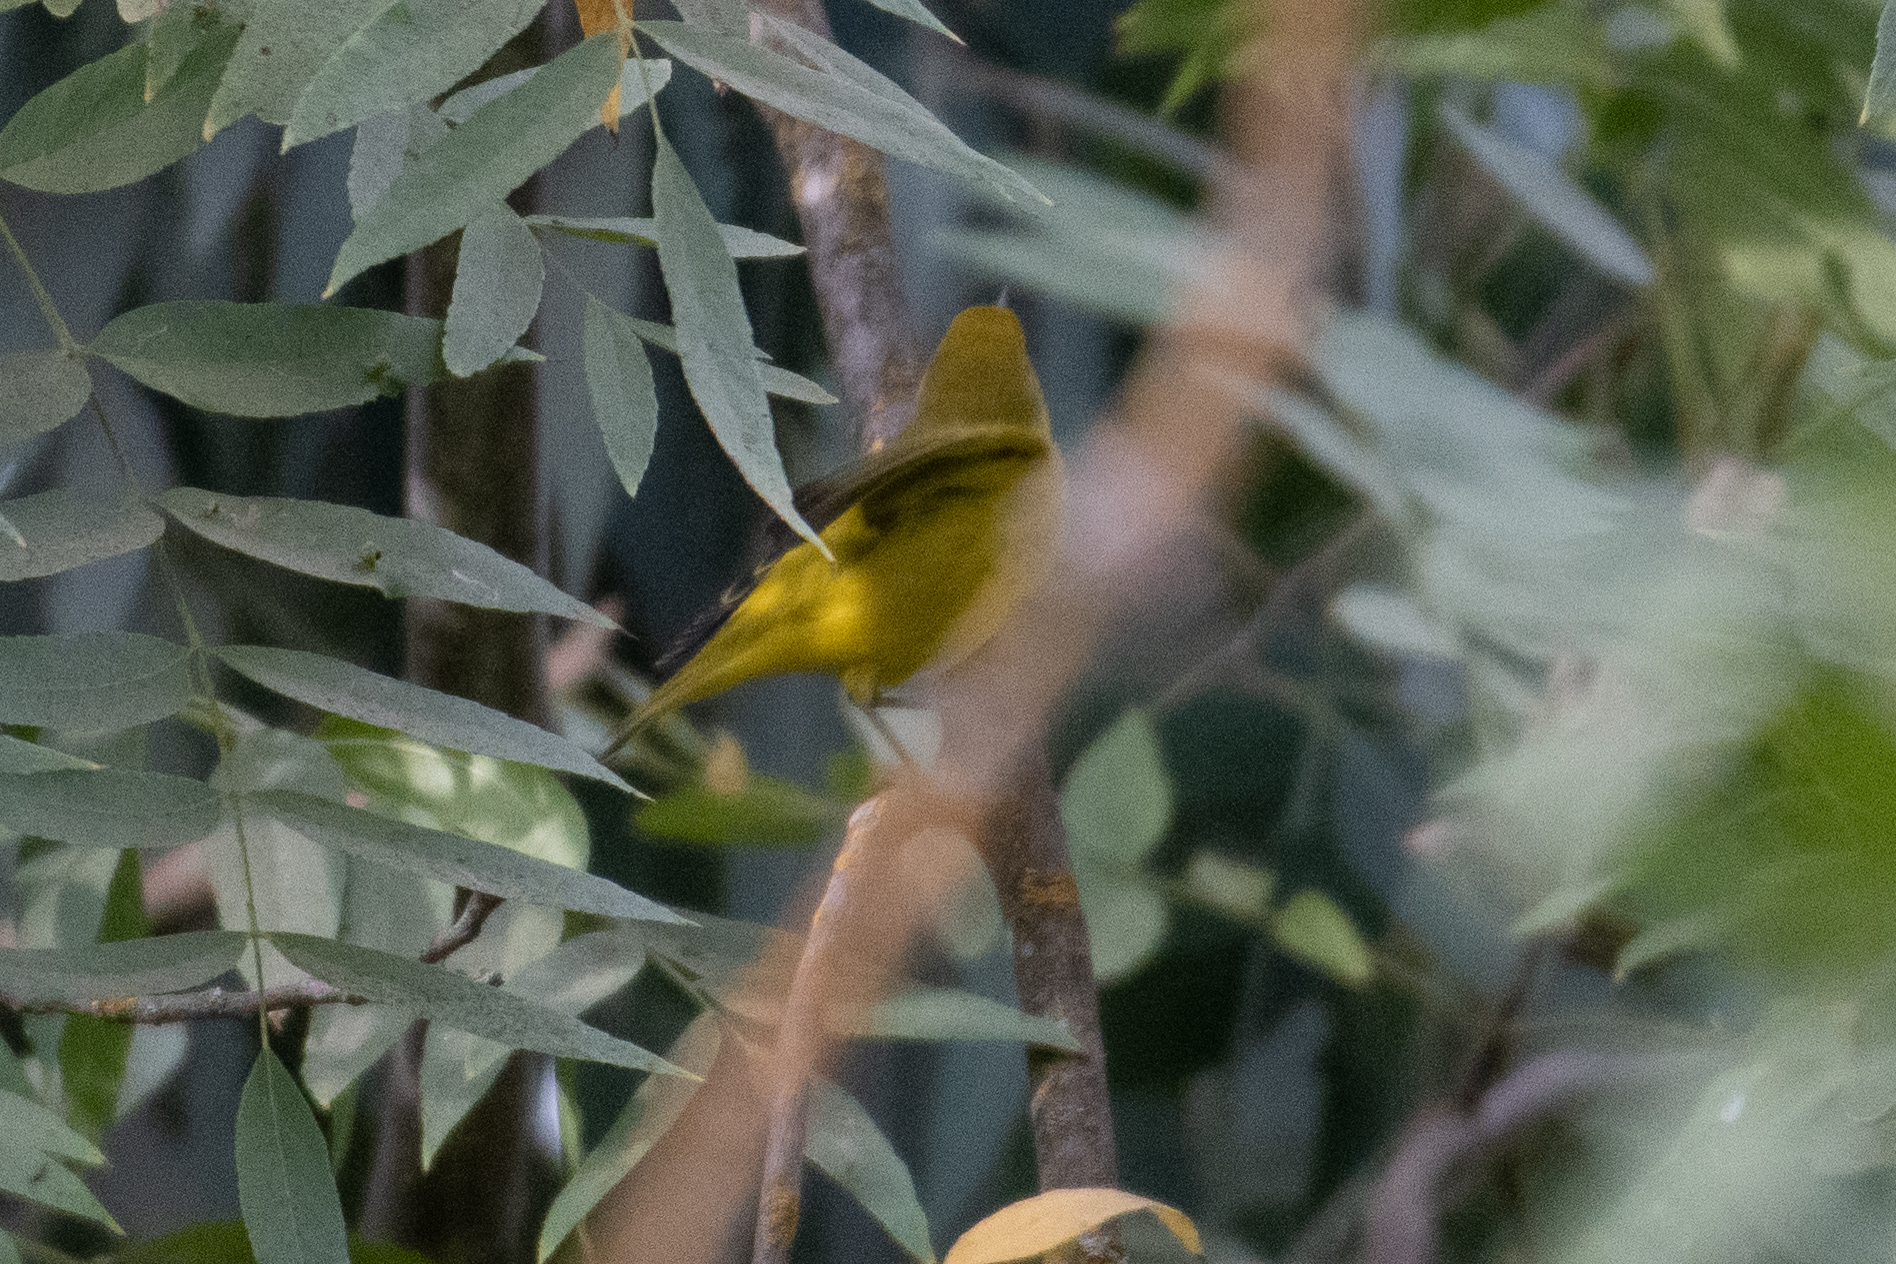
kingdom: Animalia
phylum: Chordata
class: Aves
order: Passeriformes
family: Parulidae
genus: Setophaga
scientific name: Setophaga petechia
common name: Yellow warbler
